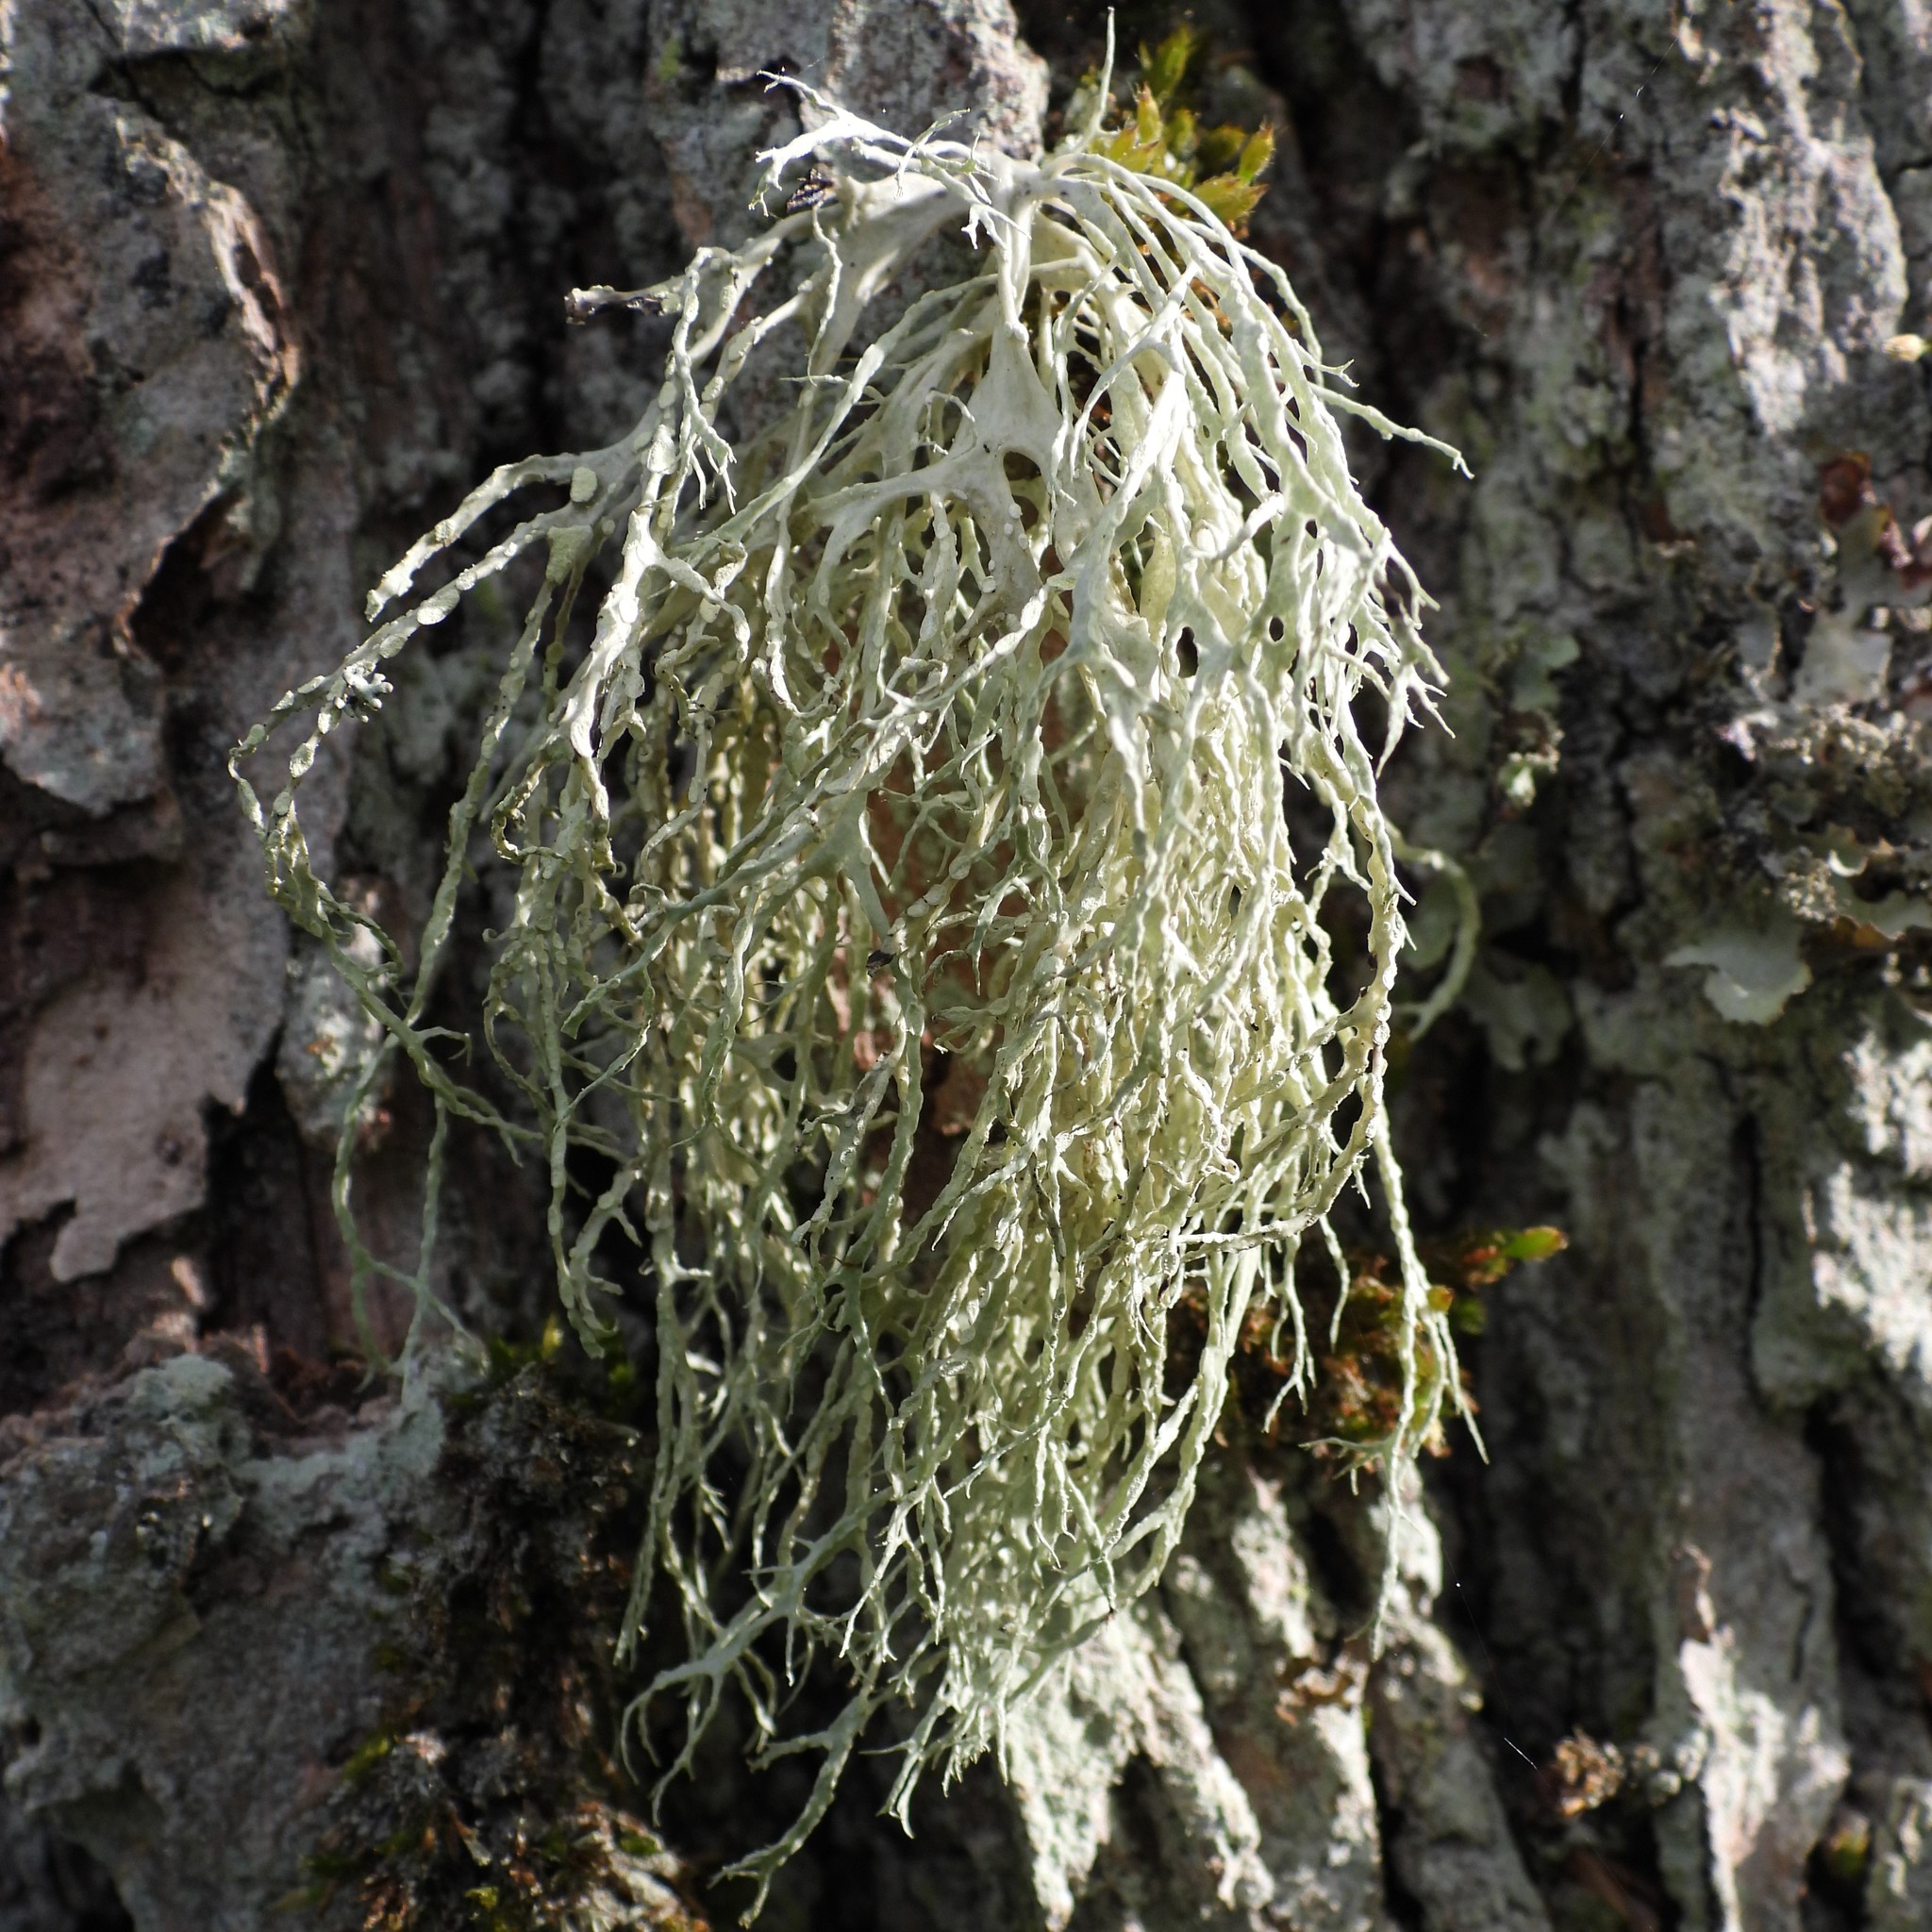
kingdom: Fungi
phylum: Ascomycota
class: Lecanoromycetes
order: Lecanorales
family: Ramalinaceae
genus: Ramalina
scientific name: Ramalina farinacea
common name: Farinose cartilage lichen
